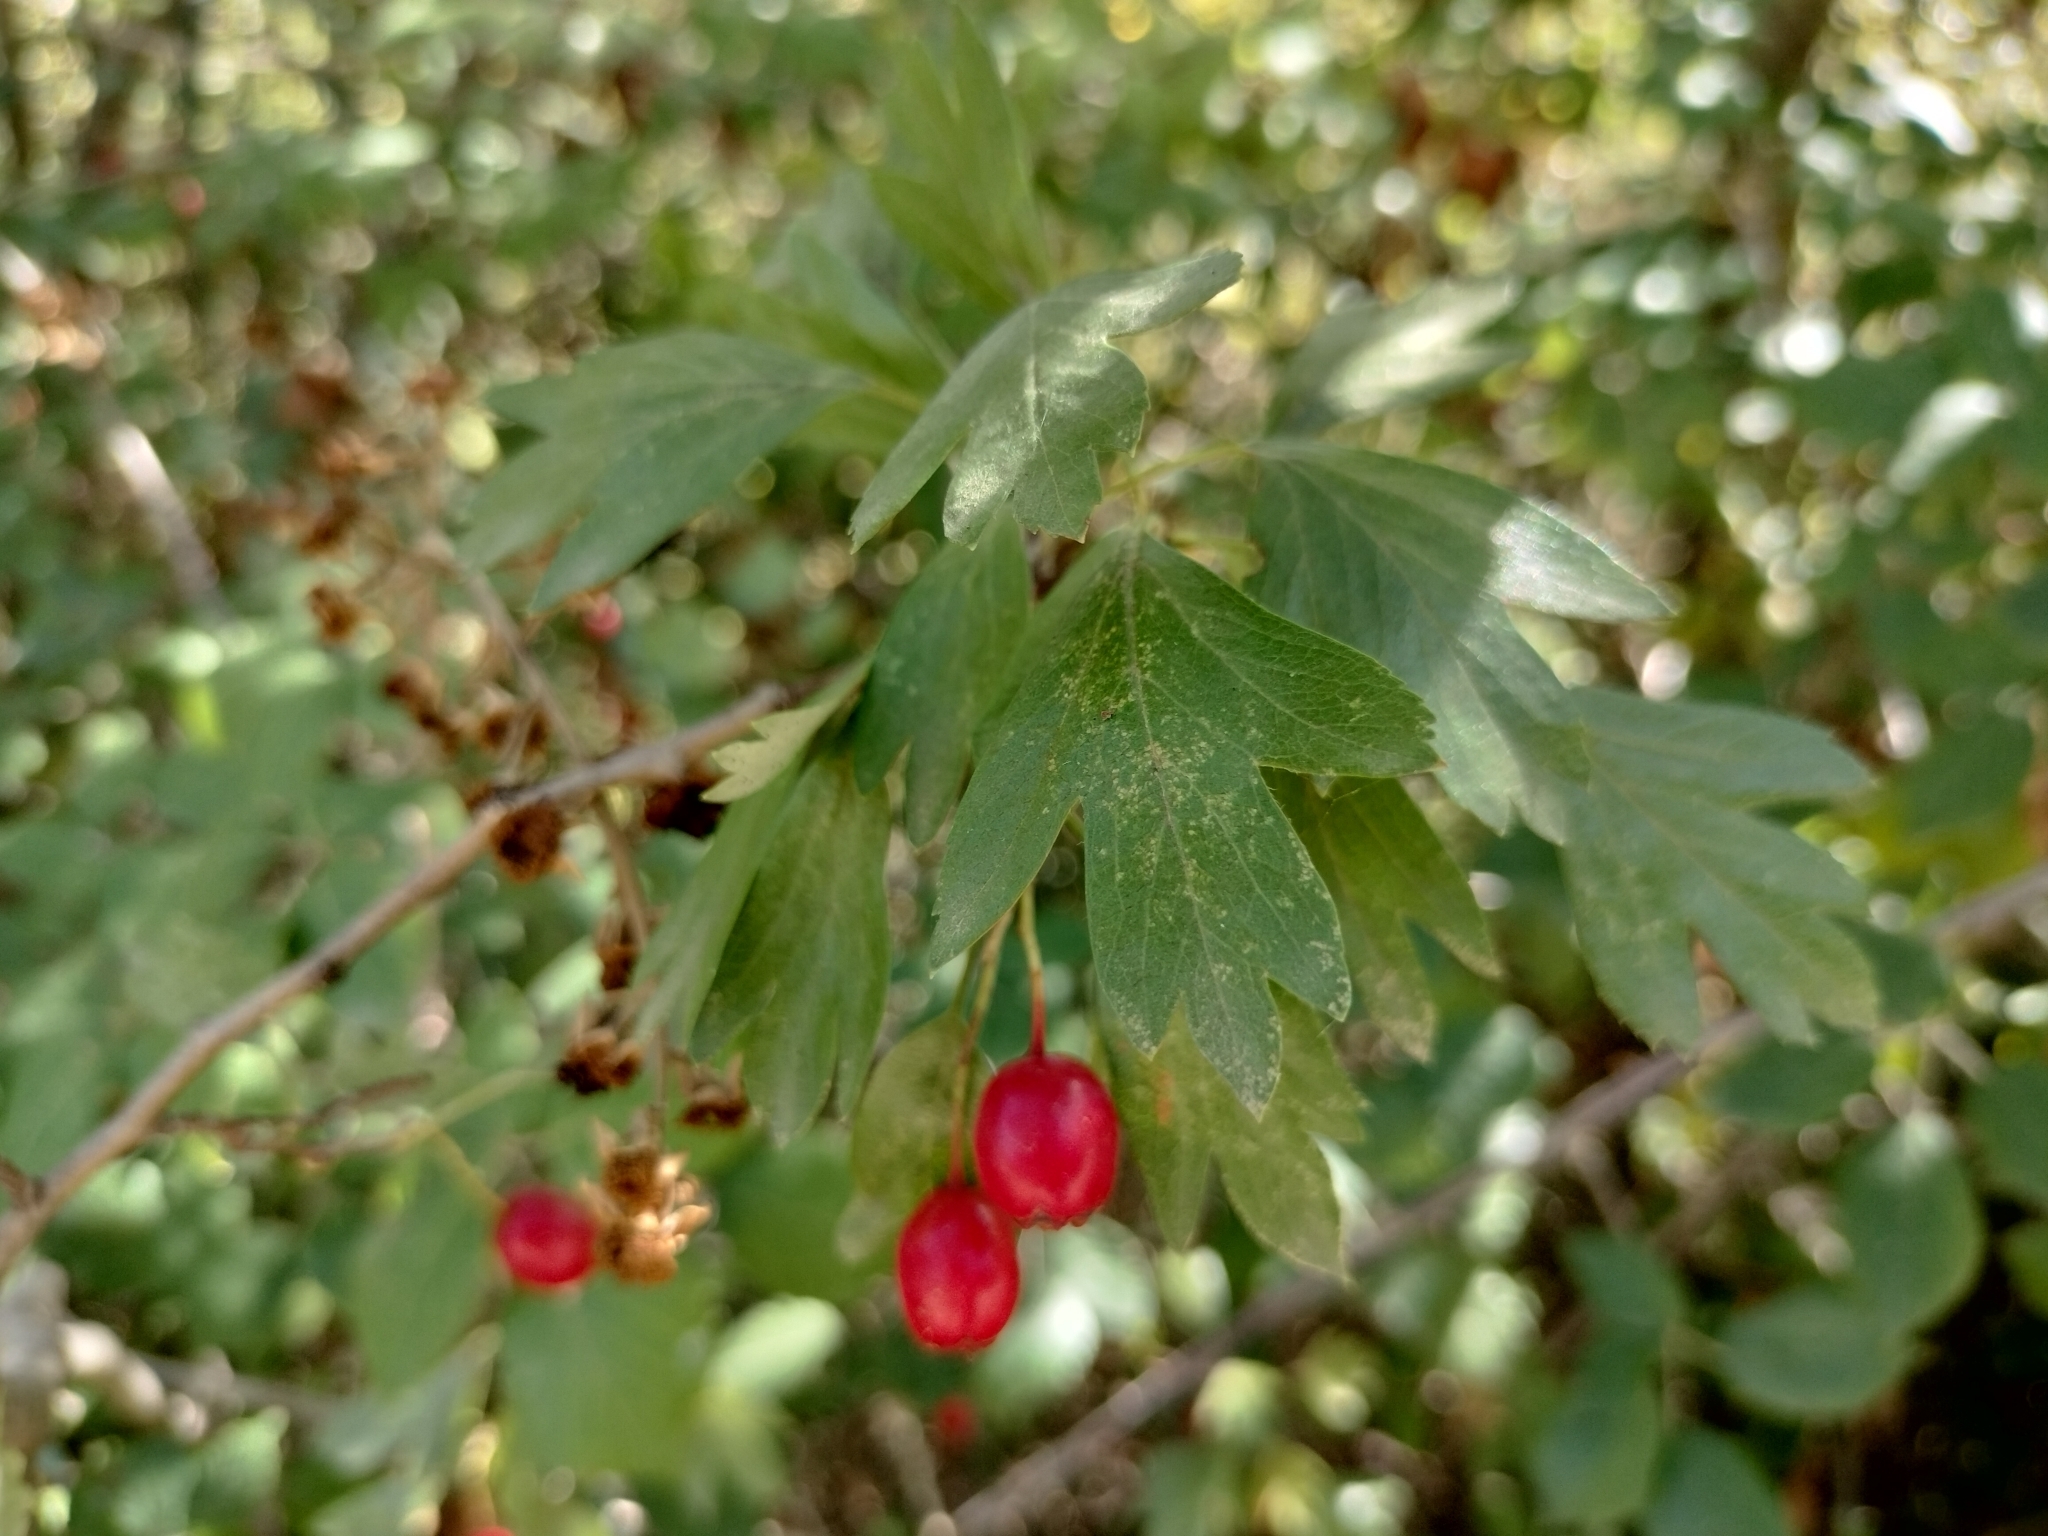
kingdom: Plantae
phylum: Tracheophyta
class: Magnoliopsida
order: Rosales
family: Rosaceae
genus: Crataegus
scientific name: Crataegus monogyna
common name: Hawthorn
